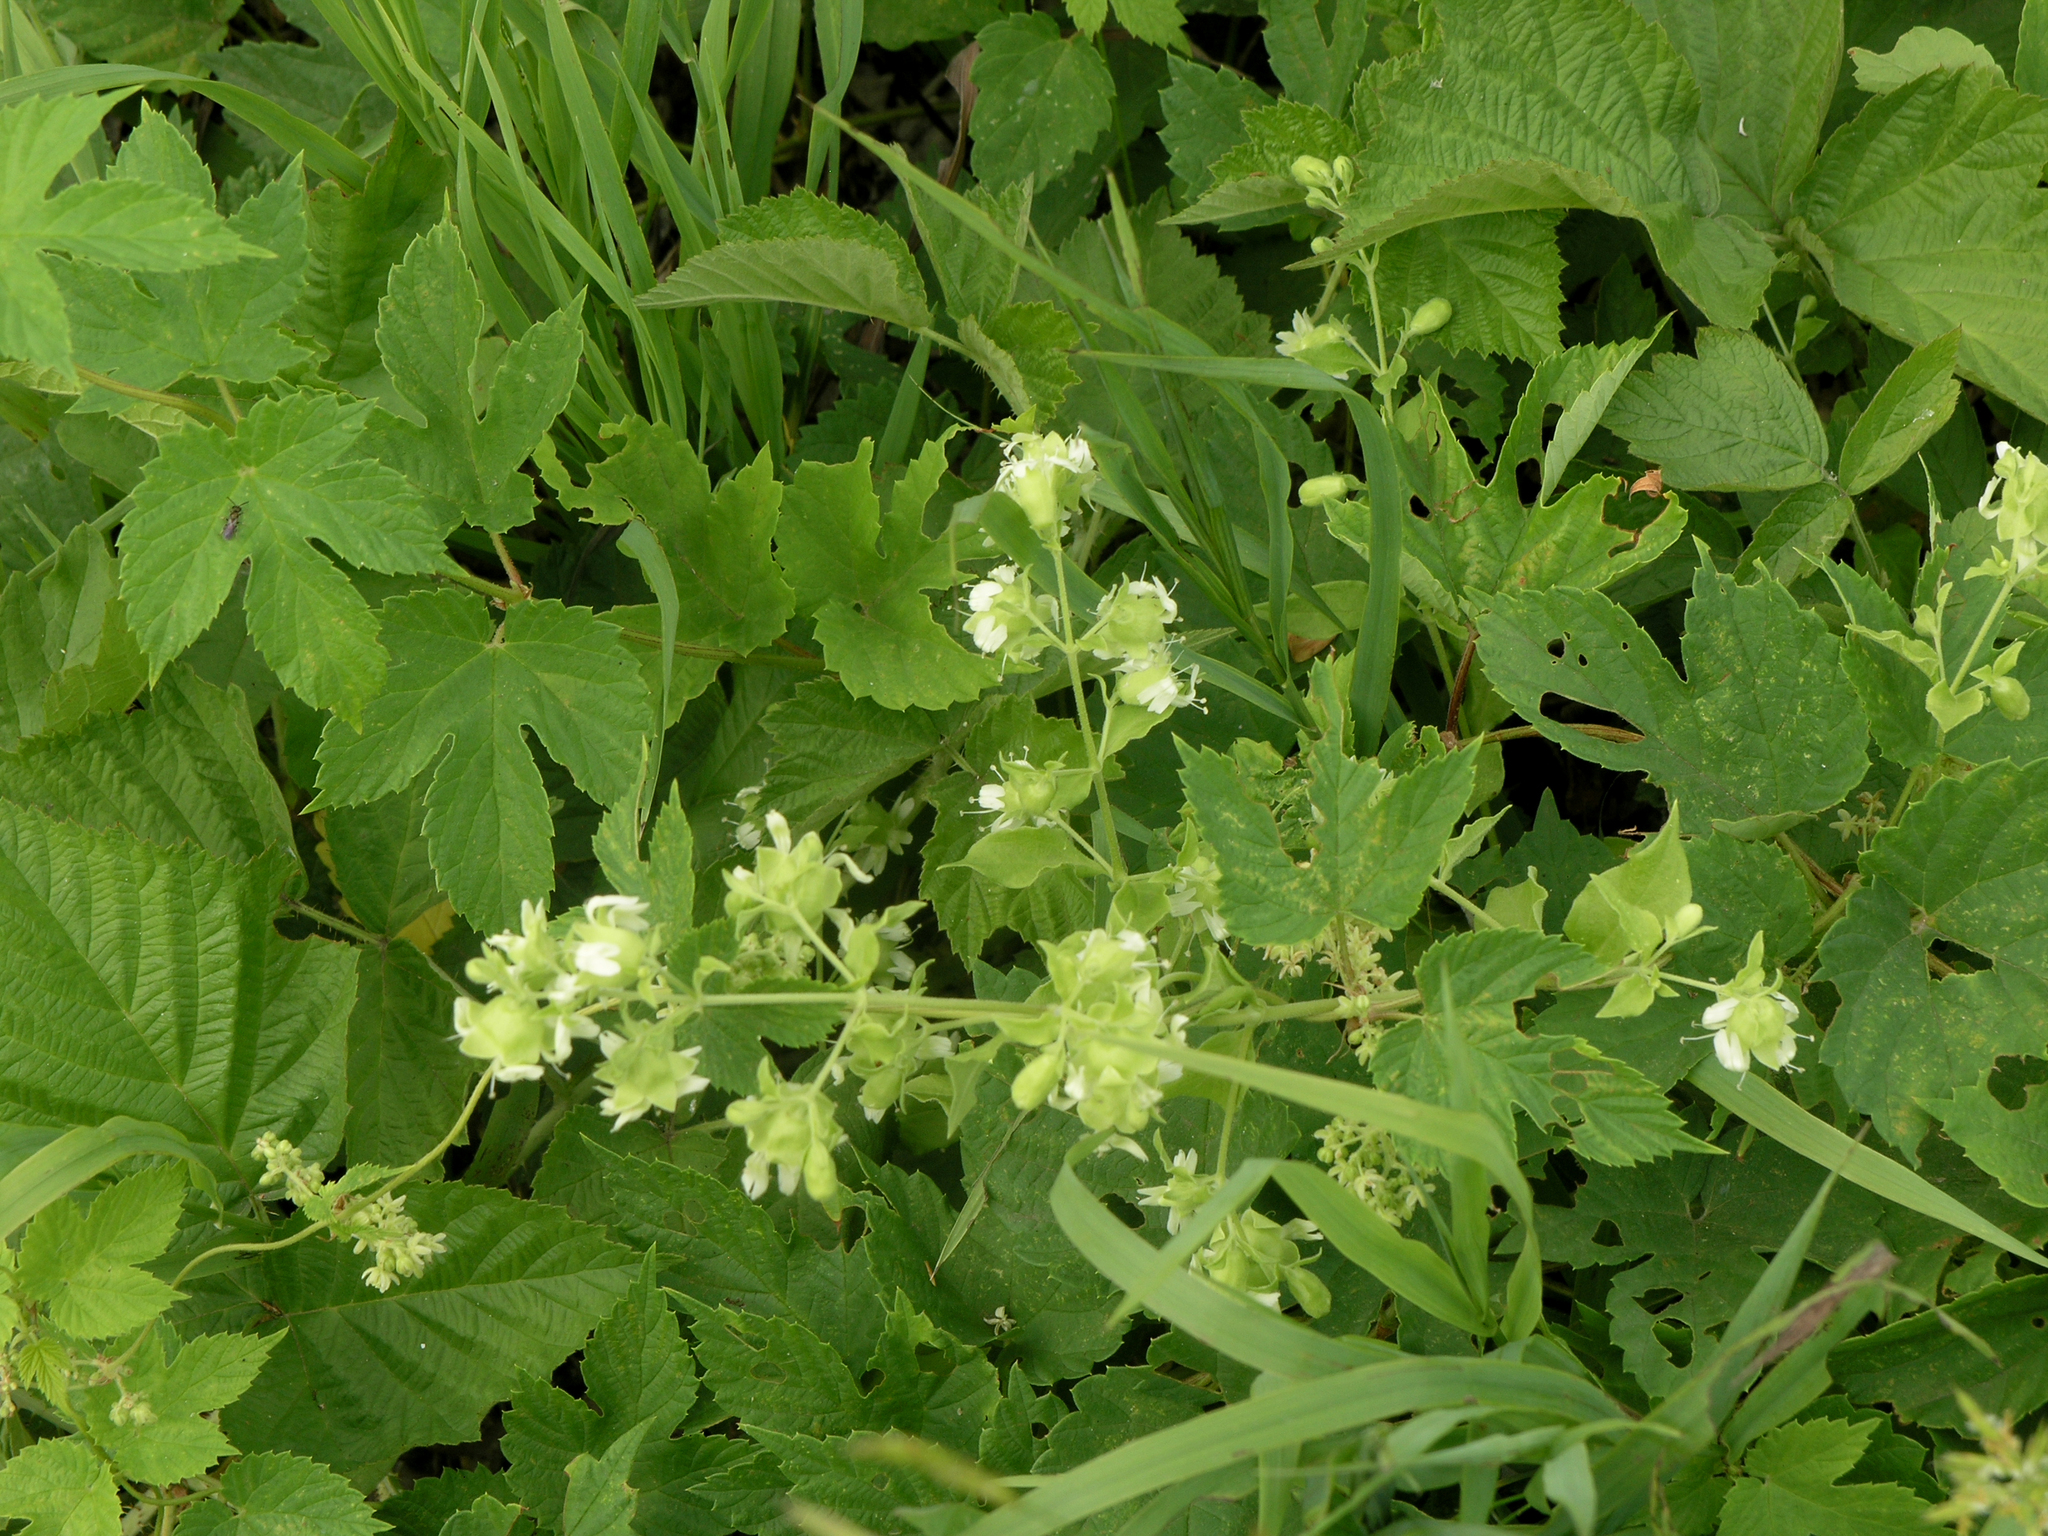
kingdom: Plantae
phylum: Tracheophyta
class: Magnoliopsida
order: Caryophyllales
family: Caryophyllaceae
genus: Silene
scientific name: Silene baccifera
